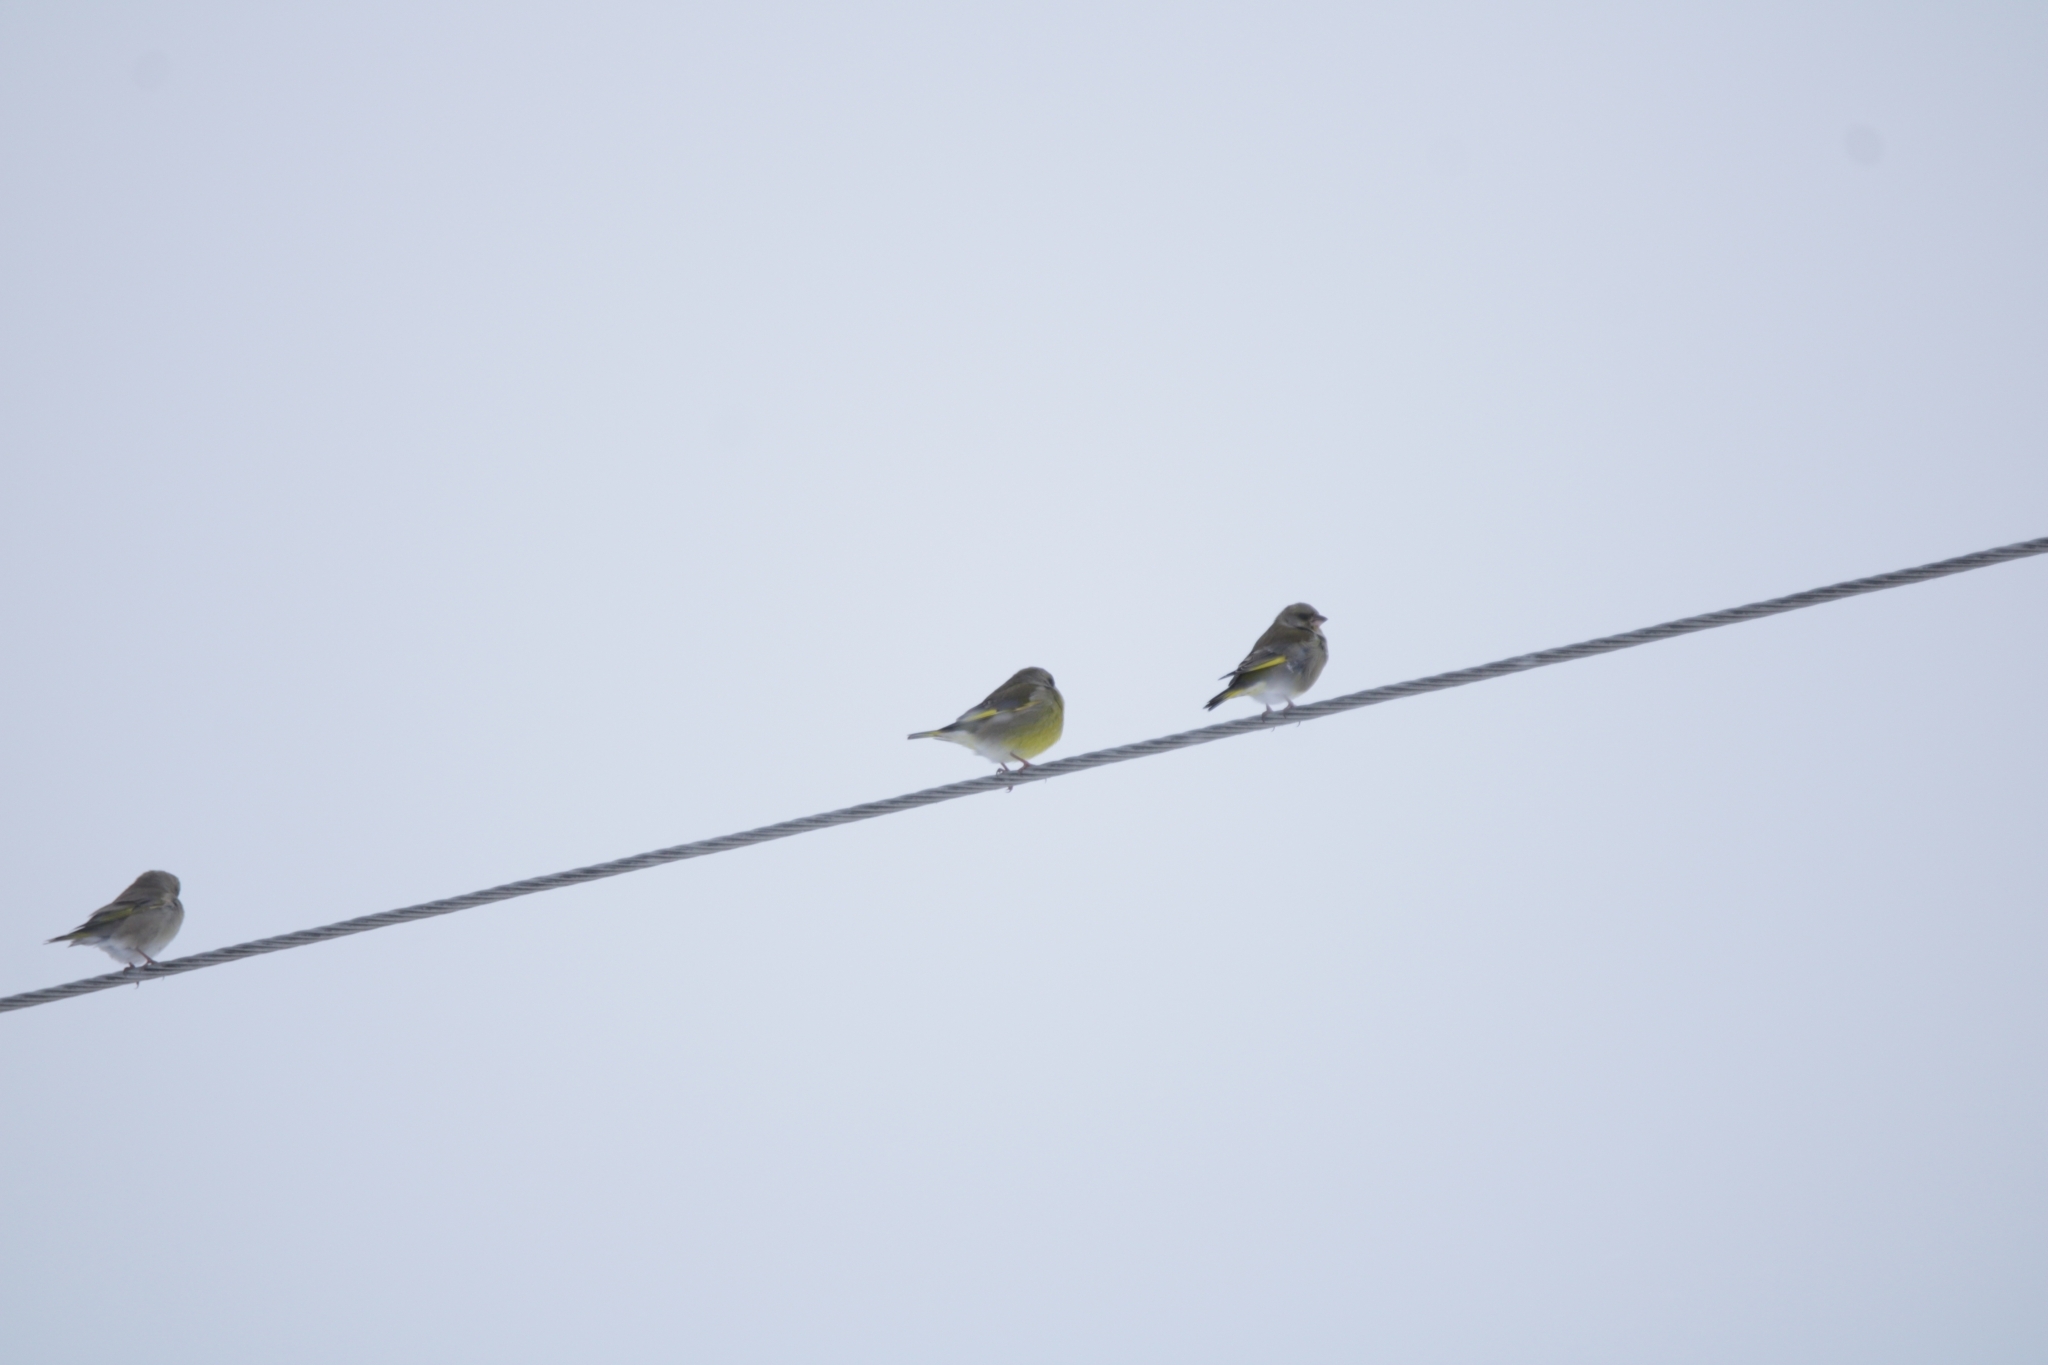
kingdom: Plantae
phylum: Tracheophyta
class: Liliopsida
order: Poales
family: Poaceae
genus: Chloris
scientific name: Chloris chloris
